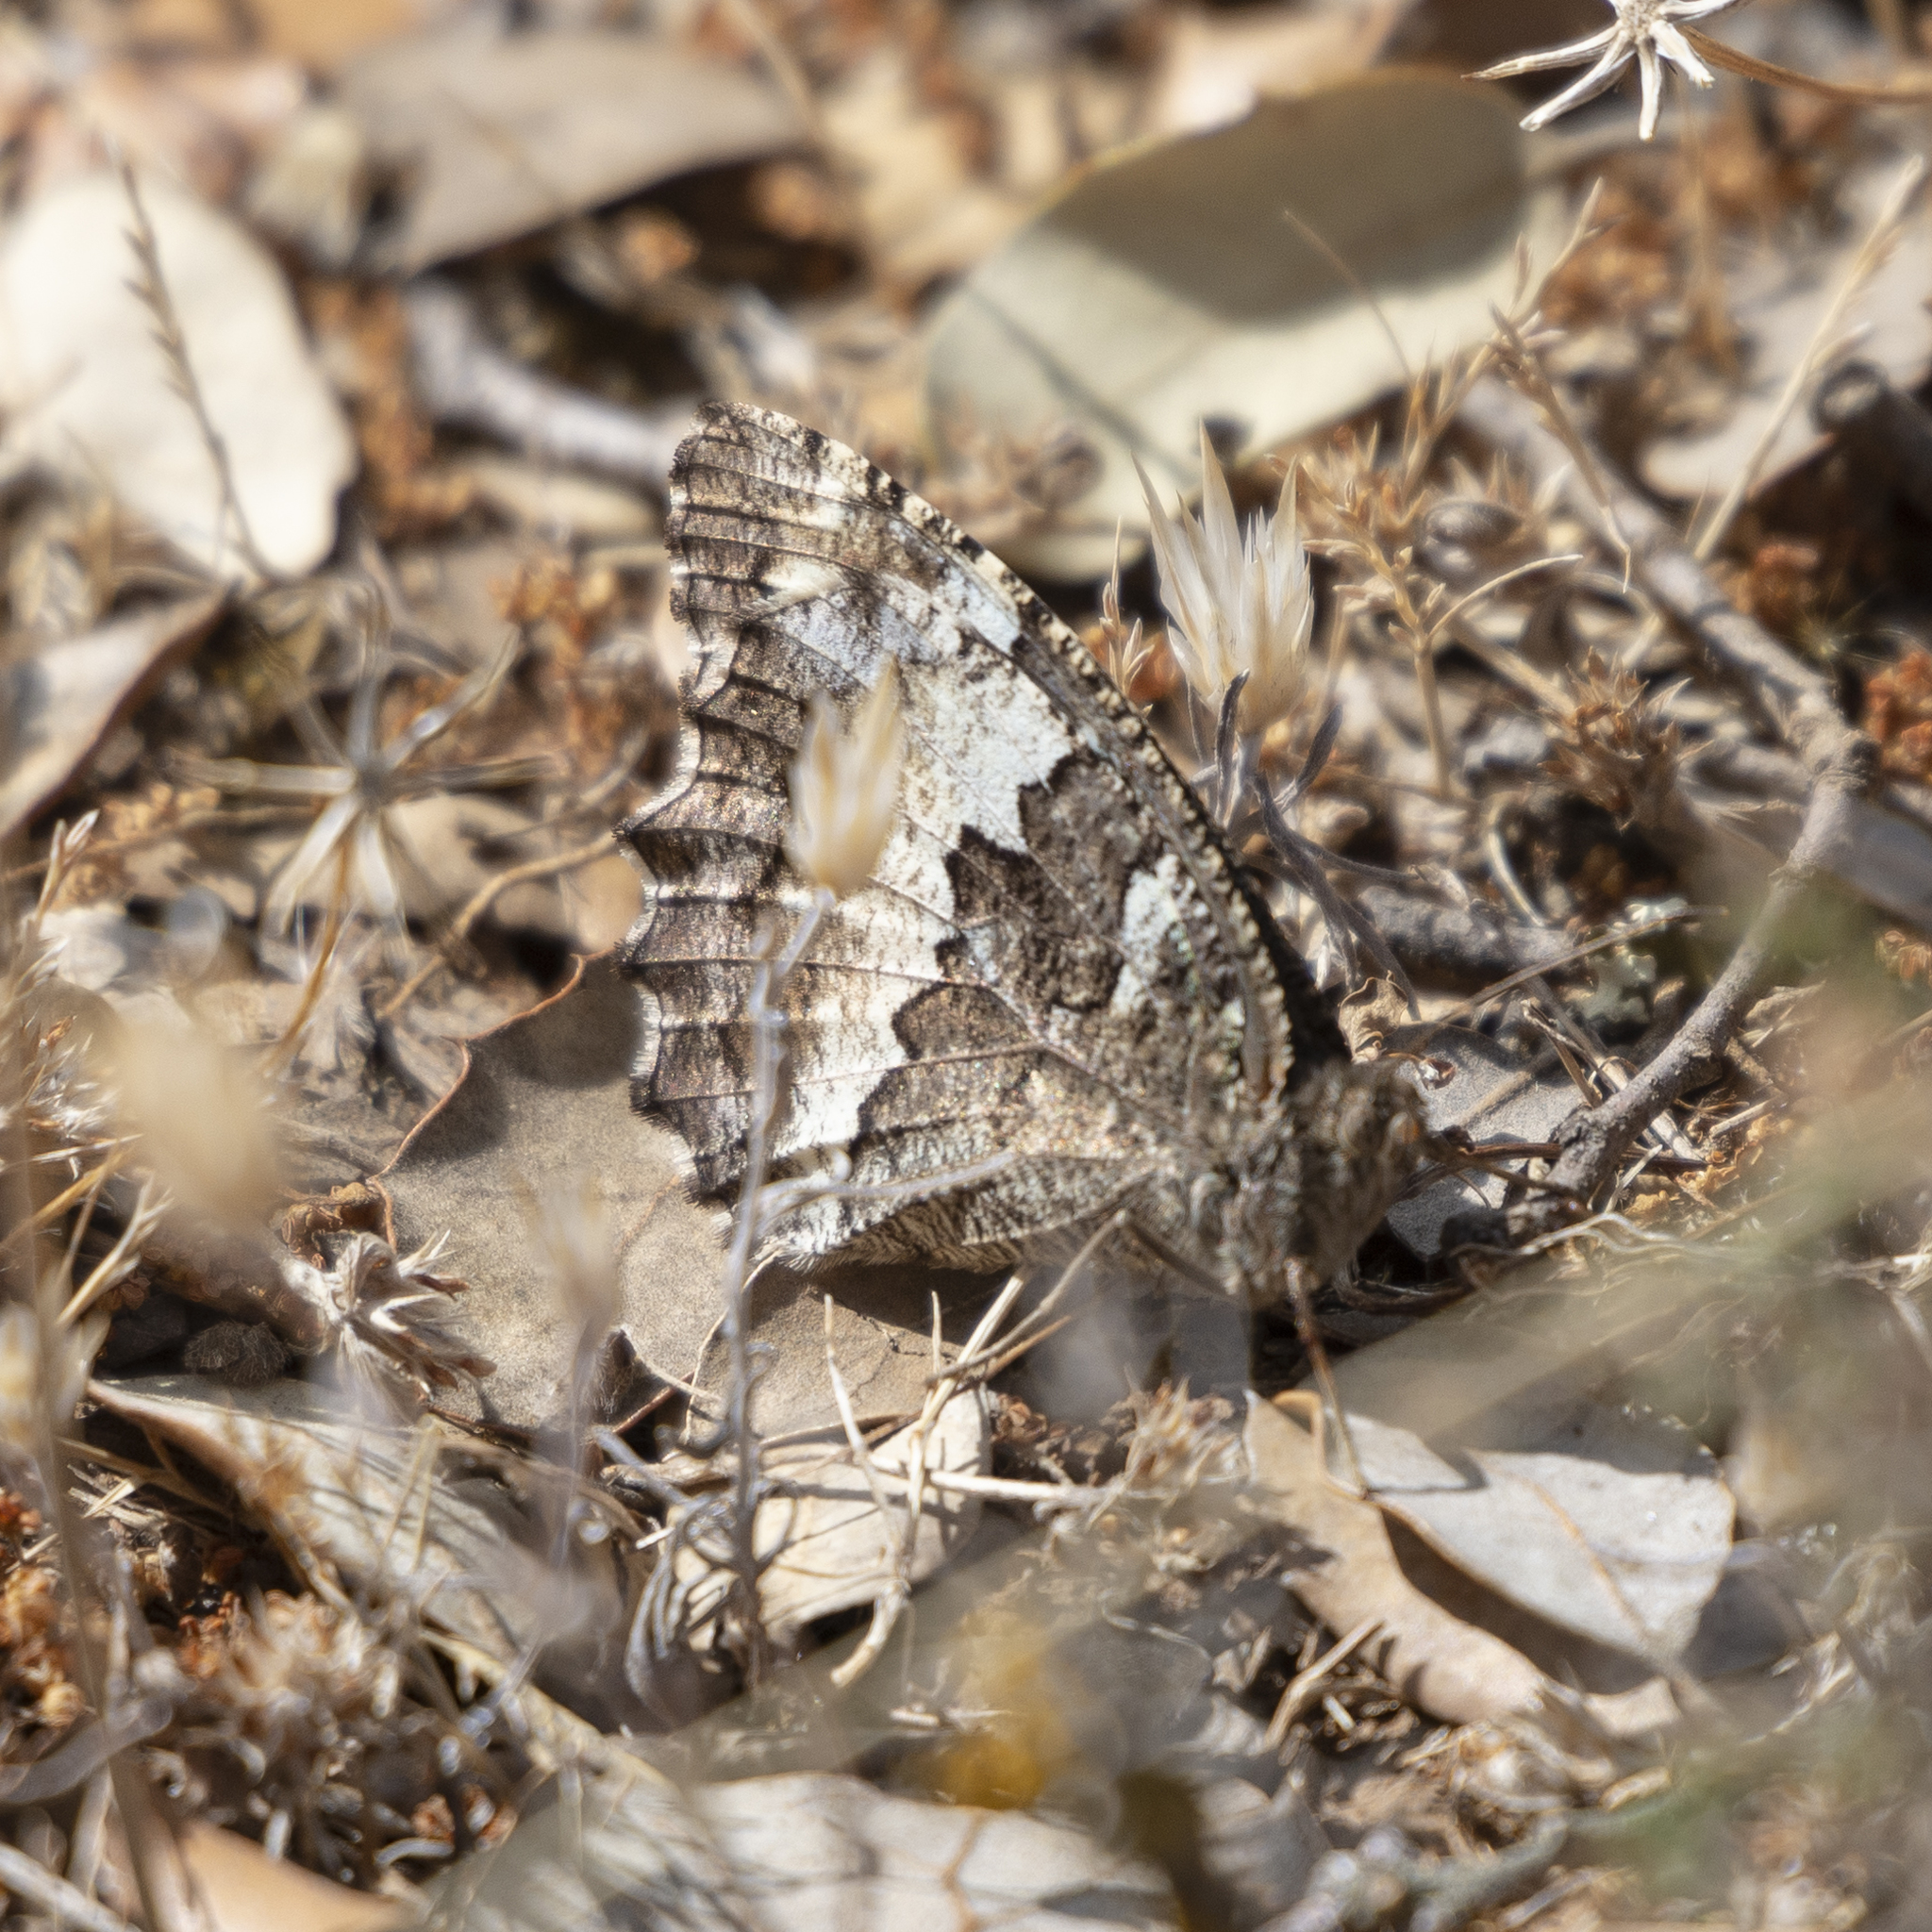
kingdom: Animalia
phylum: Arthropoda
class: Insecta
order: Lepidoptera
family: Lycaenidae
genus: Loweia
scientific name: Loweia tityrus
